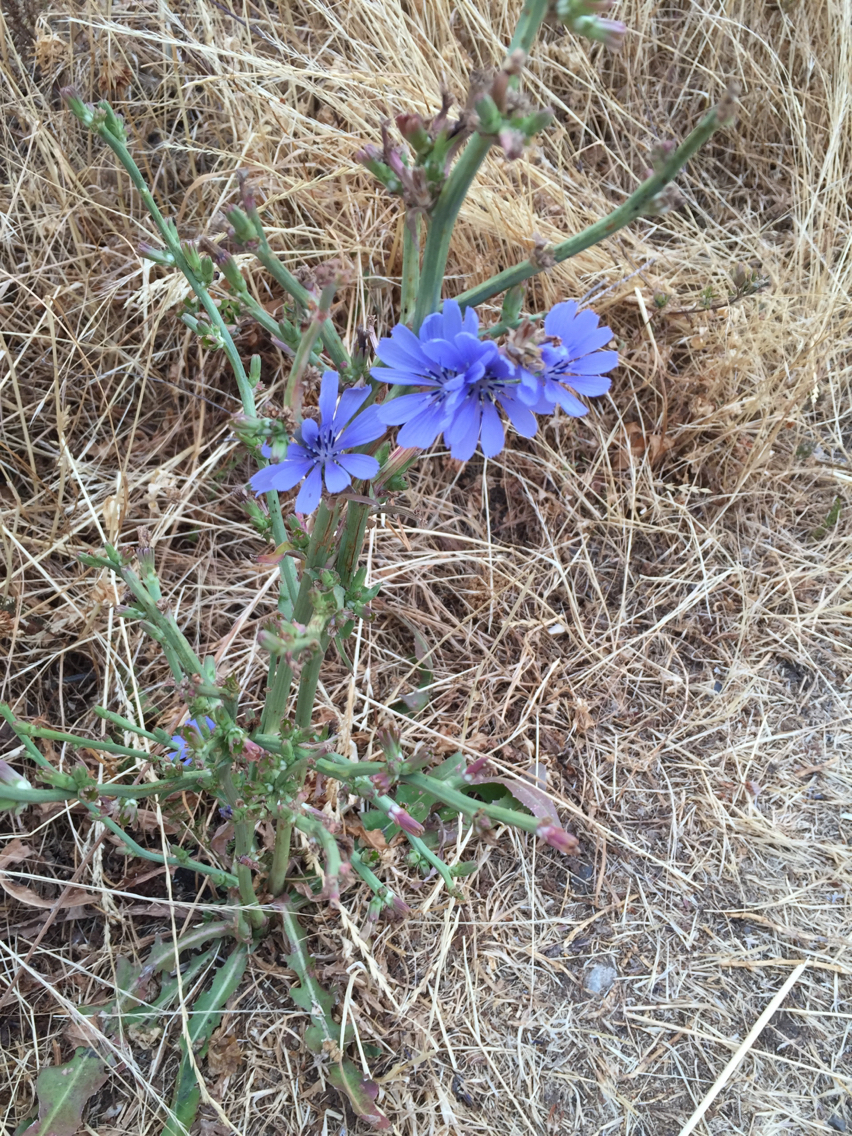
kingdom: Plantae
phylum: Tracheophyta
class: Magnoliopsida
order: Asterales
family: Asteraceae
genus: Cichorium
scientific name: Cichorium intybus
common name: Chicory
